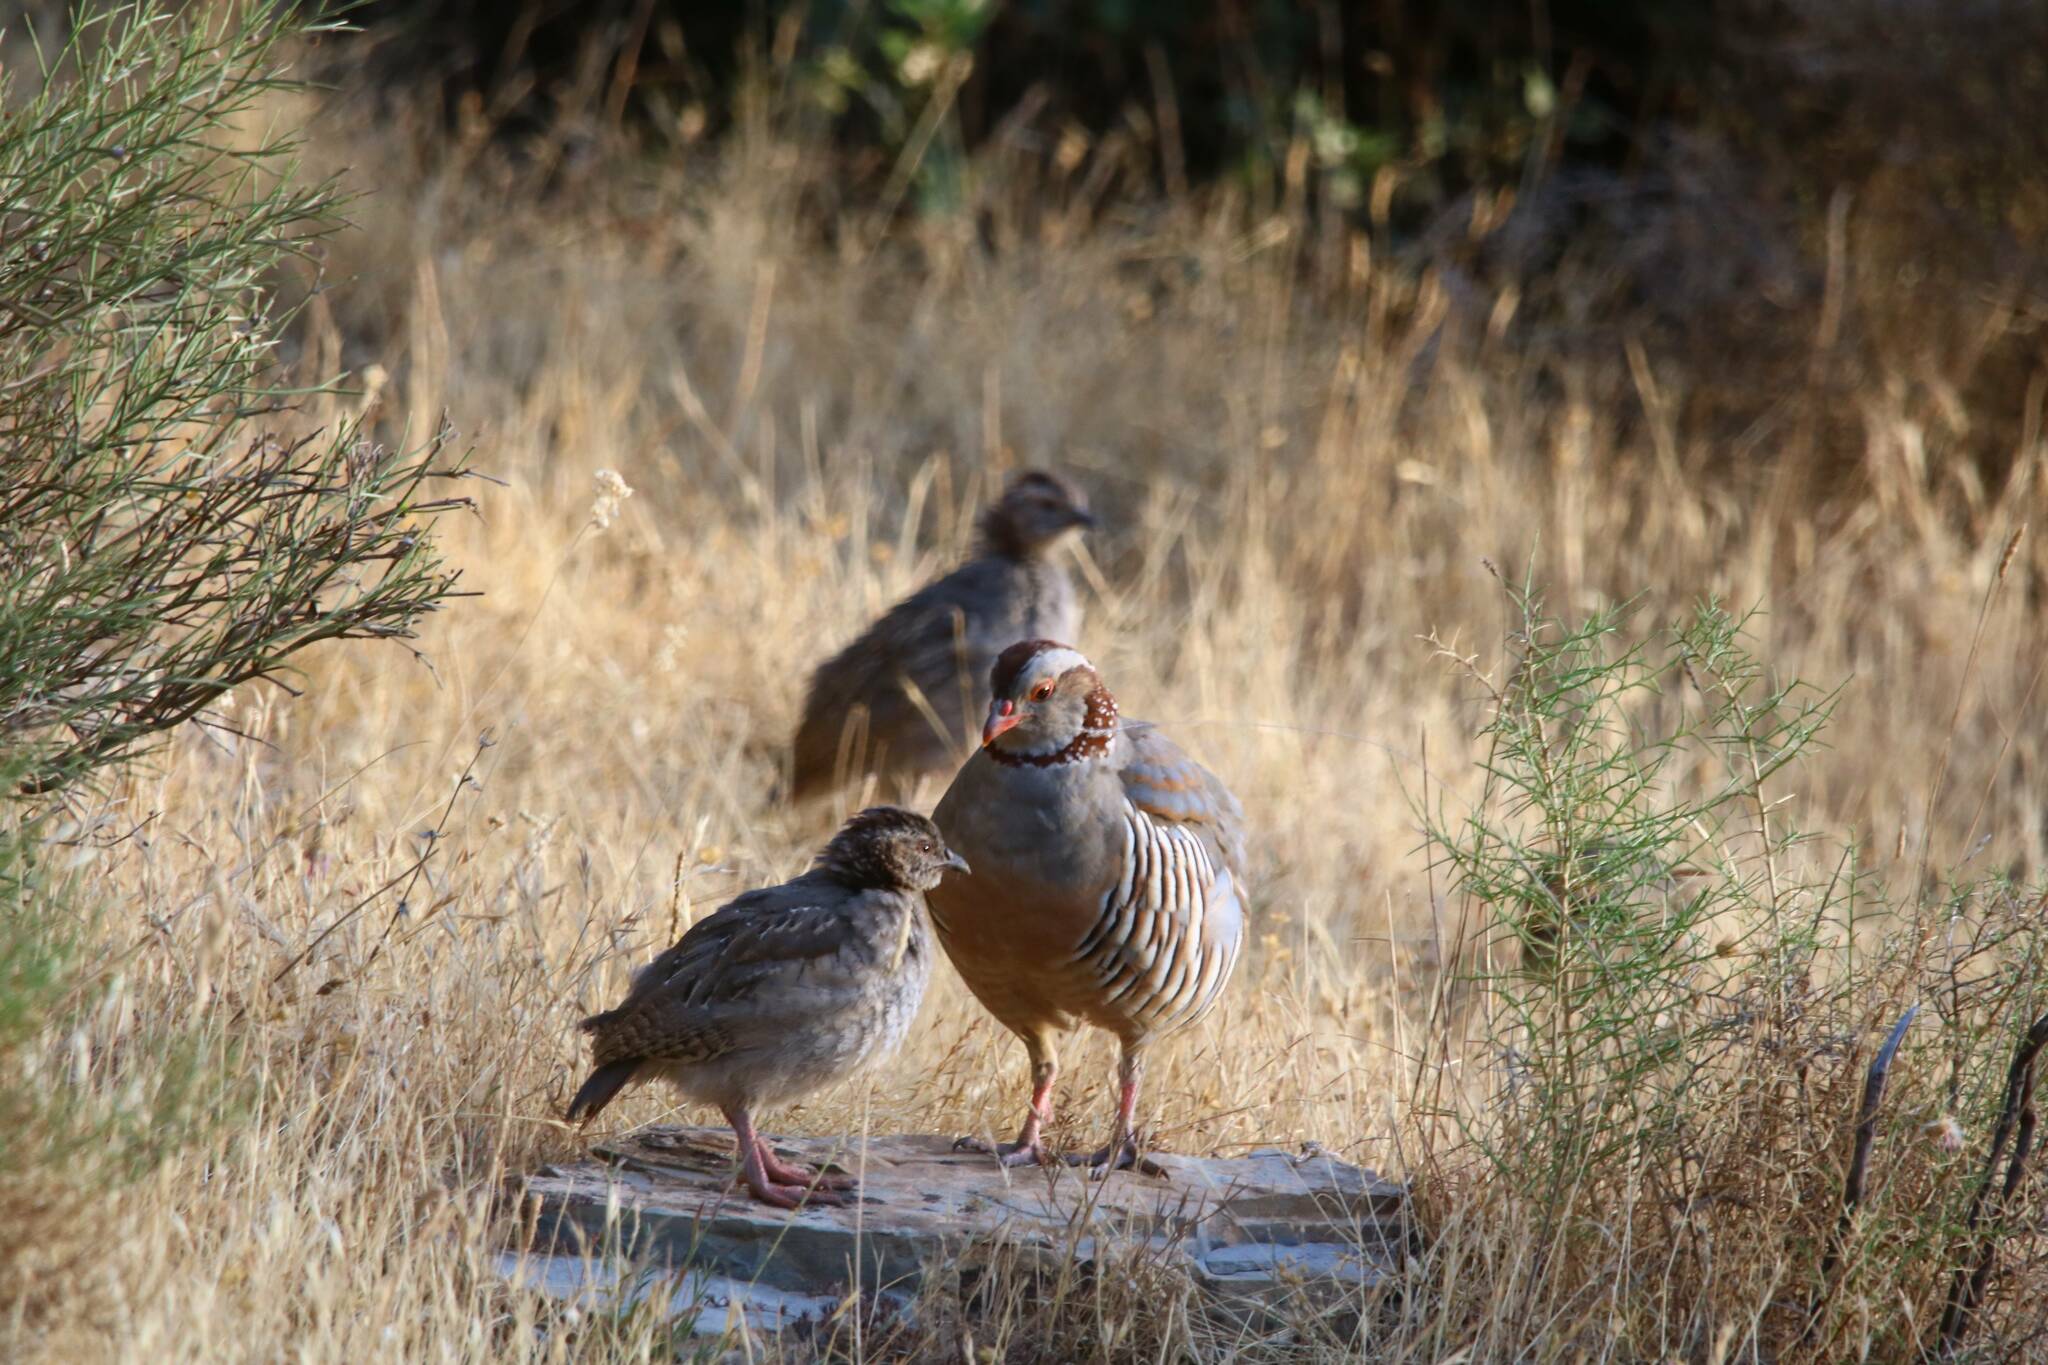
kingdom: Animalia
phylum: Chordata
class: Aves
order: Galliformes
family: Phasianidae
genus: Alectoris
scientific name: Alectoris barbara
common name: Barbary partridge
